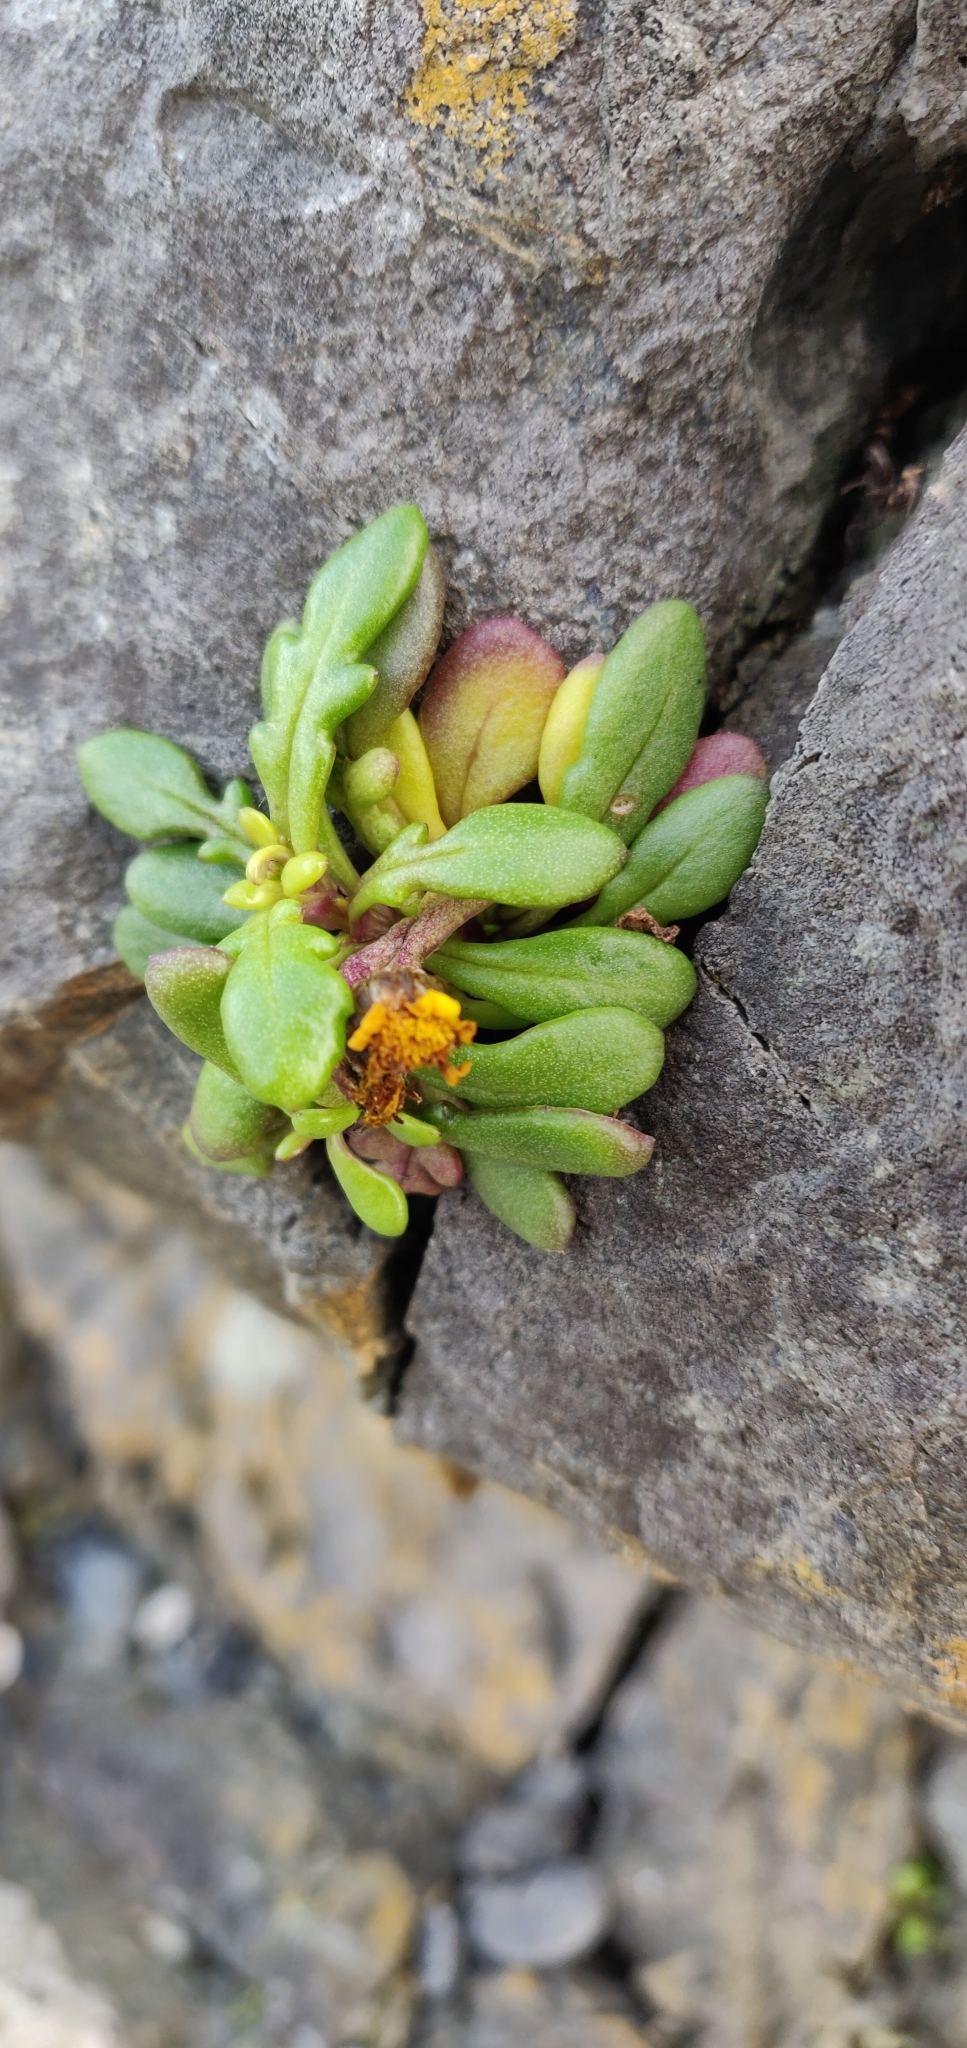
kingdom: Plantae
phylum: Tracheophyta
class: Magnoliopsida
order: Asterales
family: Asteraceae
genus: Senecio
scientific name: Senecio lautus
